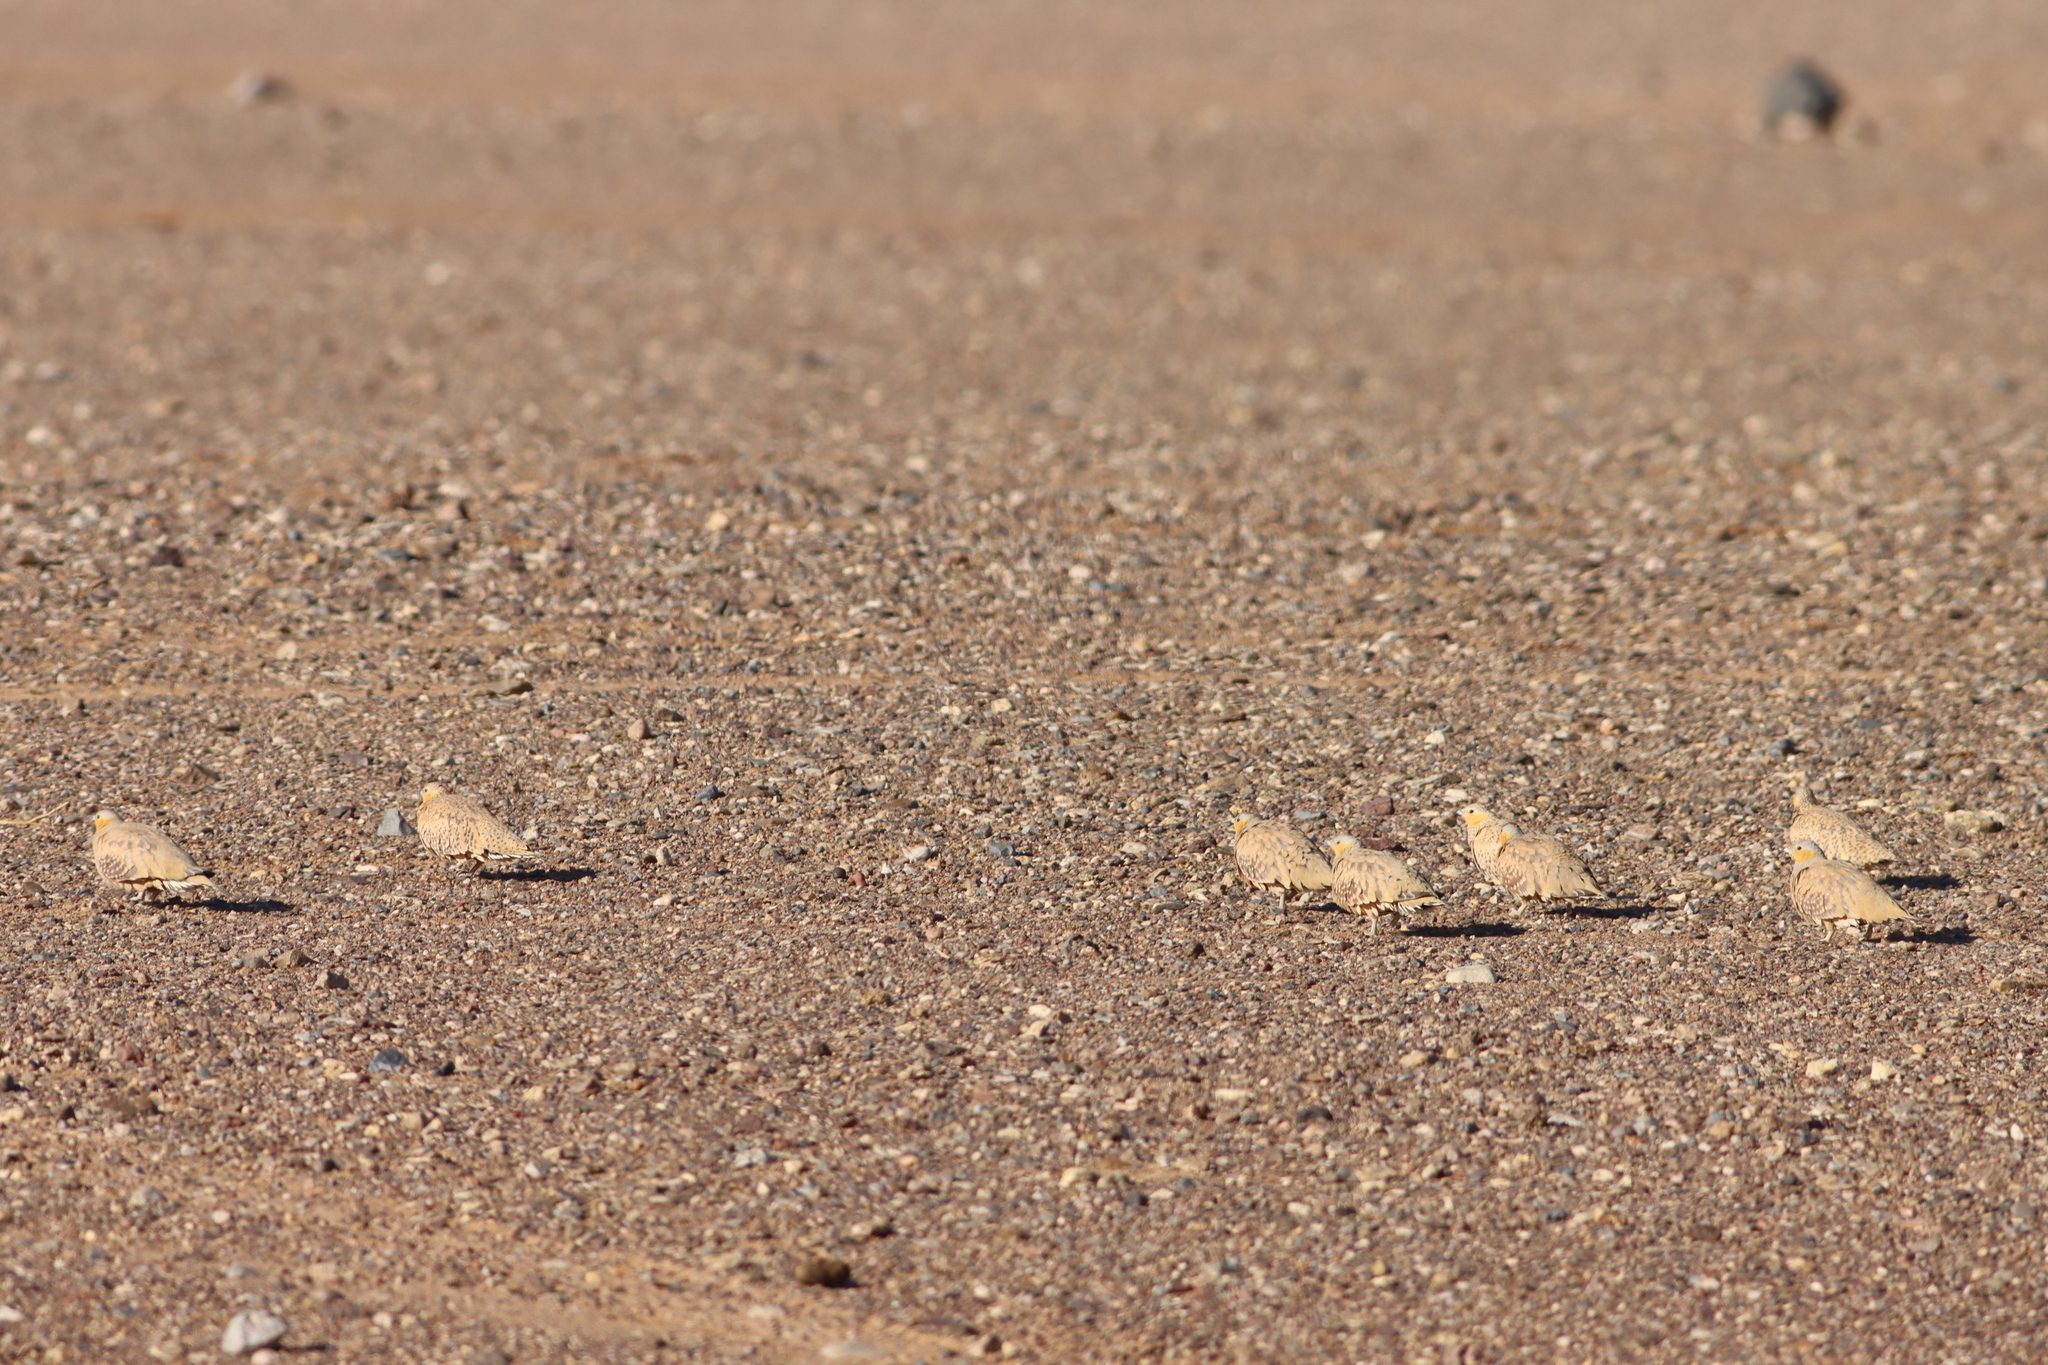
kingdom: Animalia
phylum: Chordata
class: Aves
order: Pteroclidiformes
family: Pteroclididae
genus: Pterocles
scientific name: Pterocles senegallus
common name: Spotted sandgrouse
